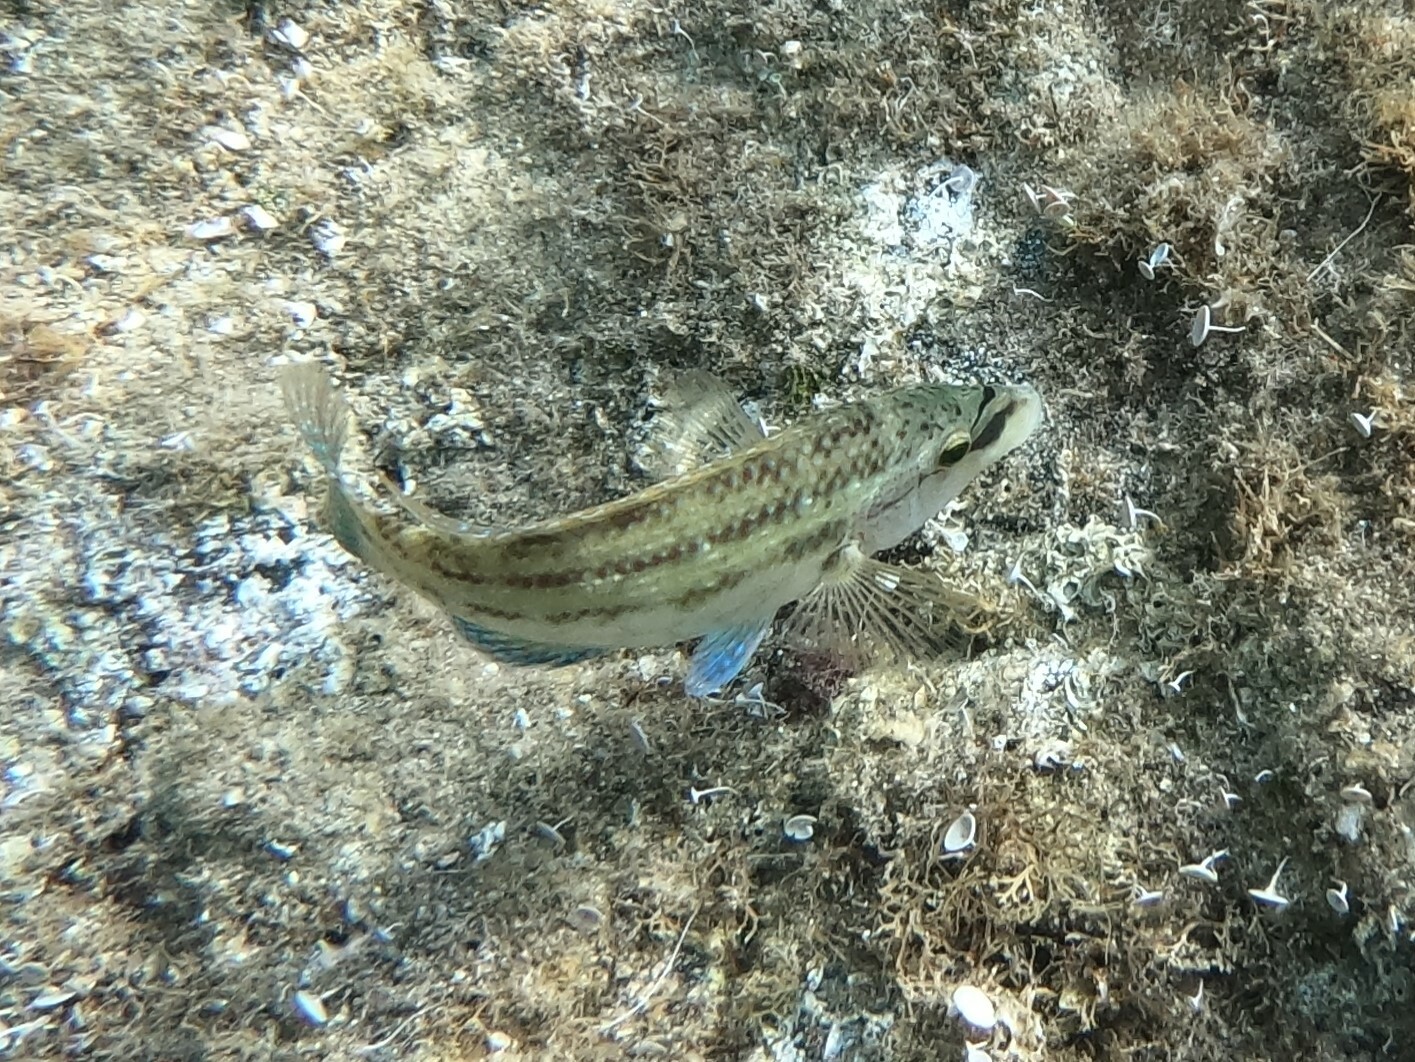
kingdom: Animalia
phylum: Chordata
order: Perciformes
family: Labridae
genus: Symphodus
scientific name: Symphodus tinca
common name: Peacock wrasse
